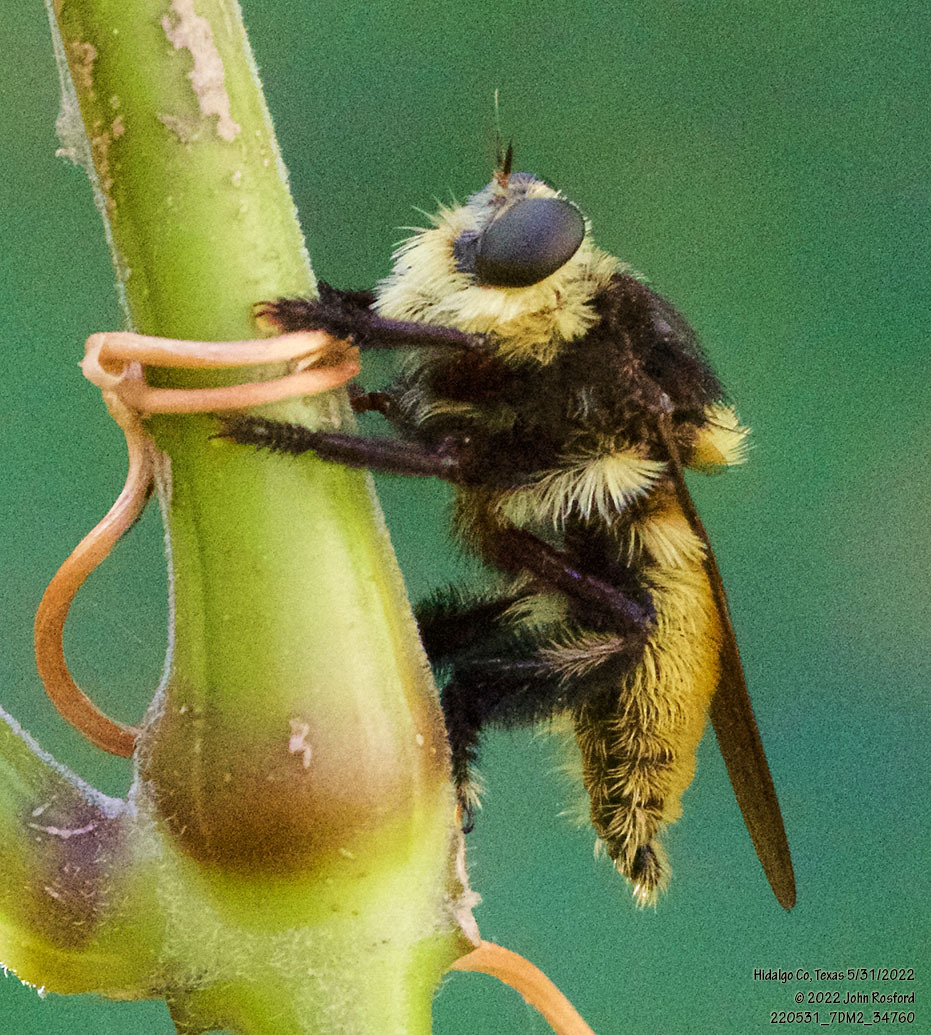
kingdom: Animalia
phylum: Arthropoda
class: Insecta
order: Diptera
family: Asilidae
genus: Mallophora
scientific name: Mallophora fautrix
